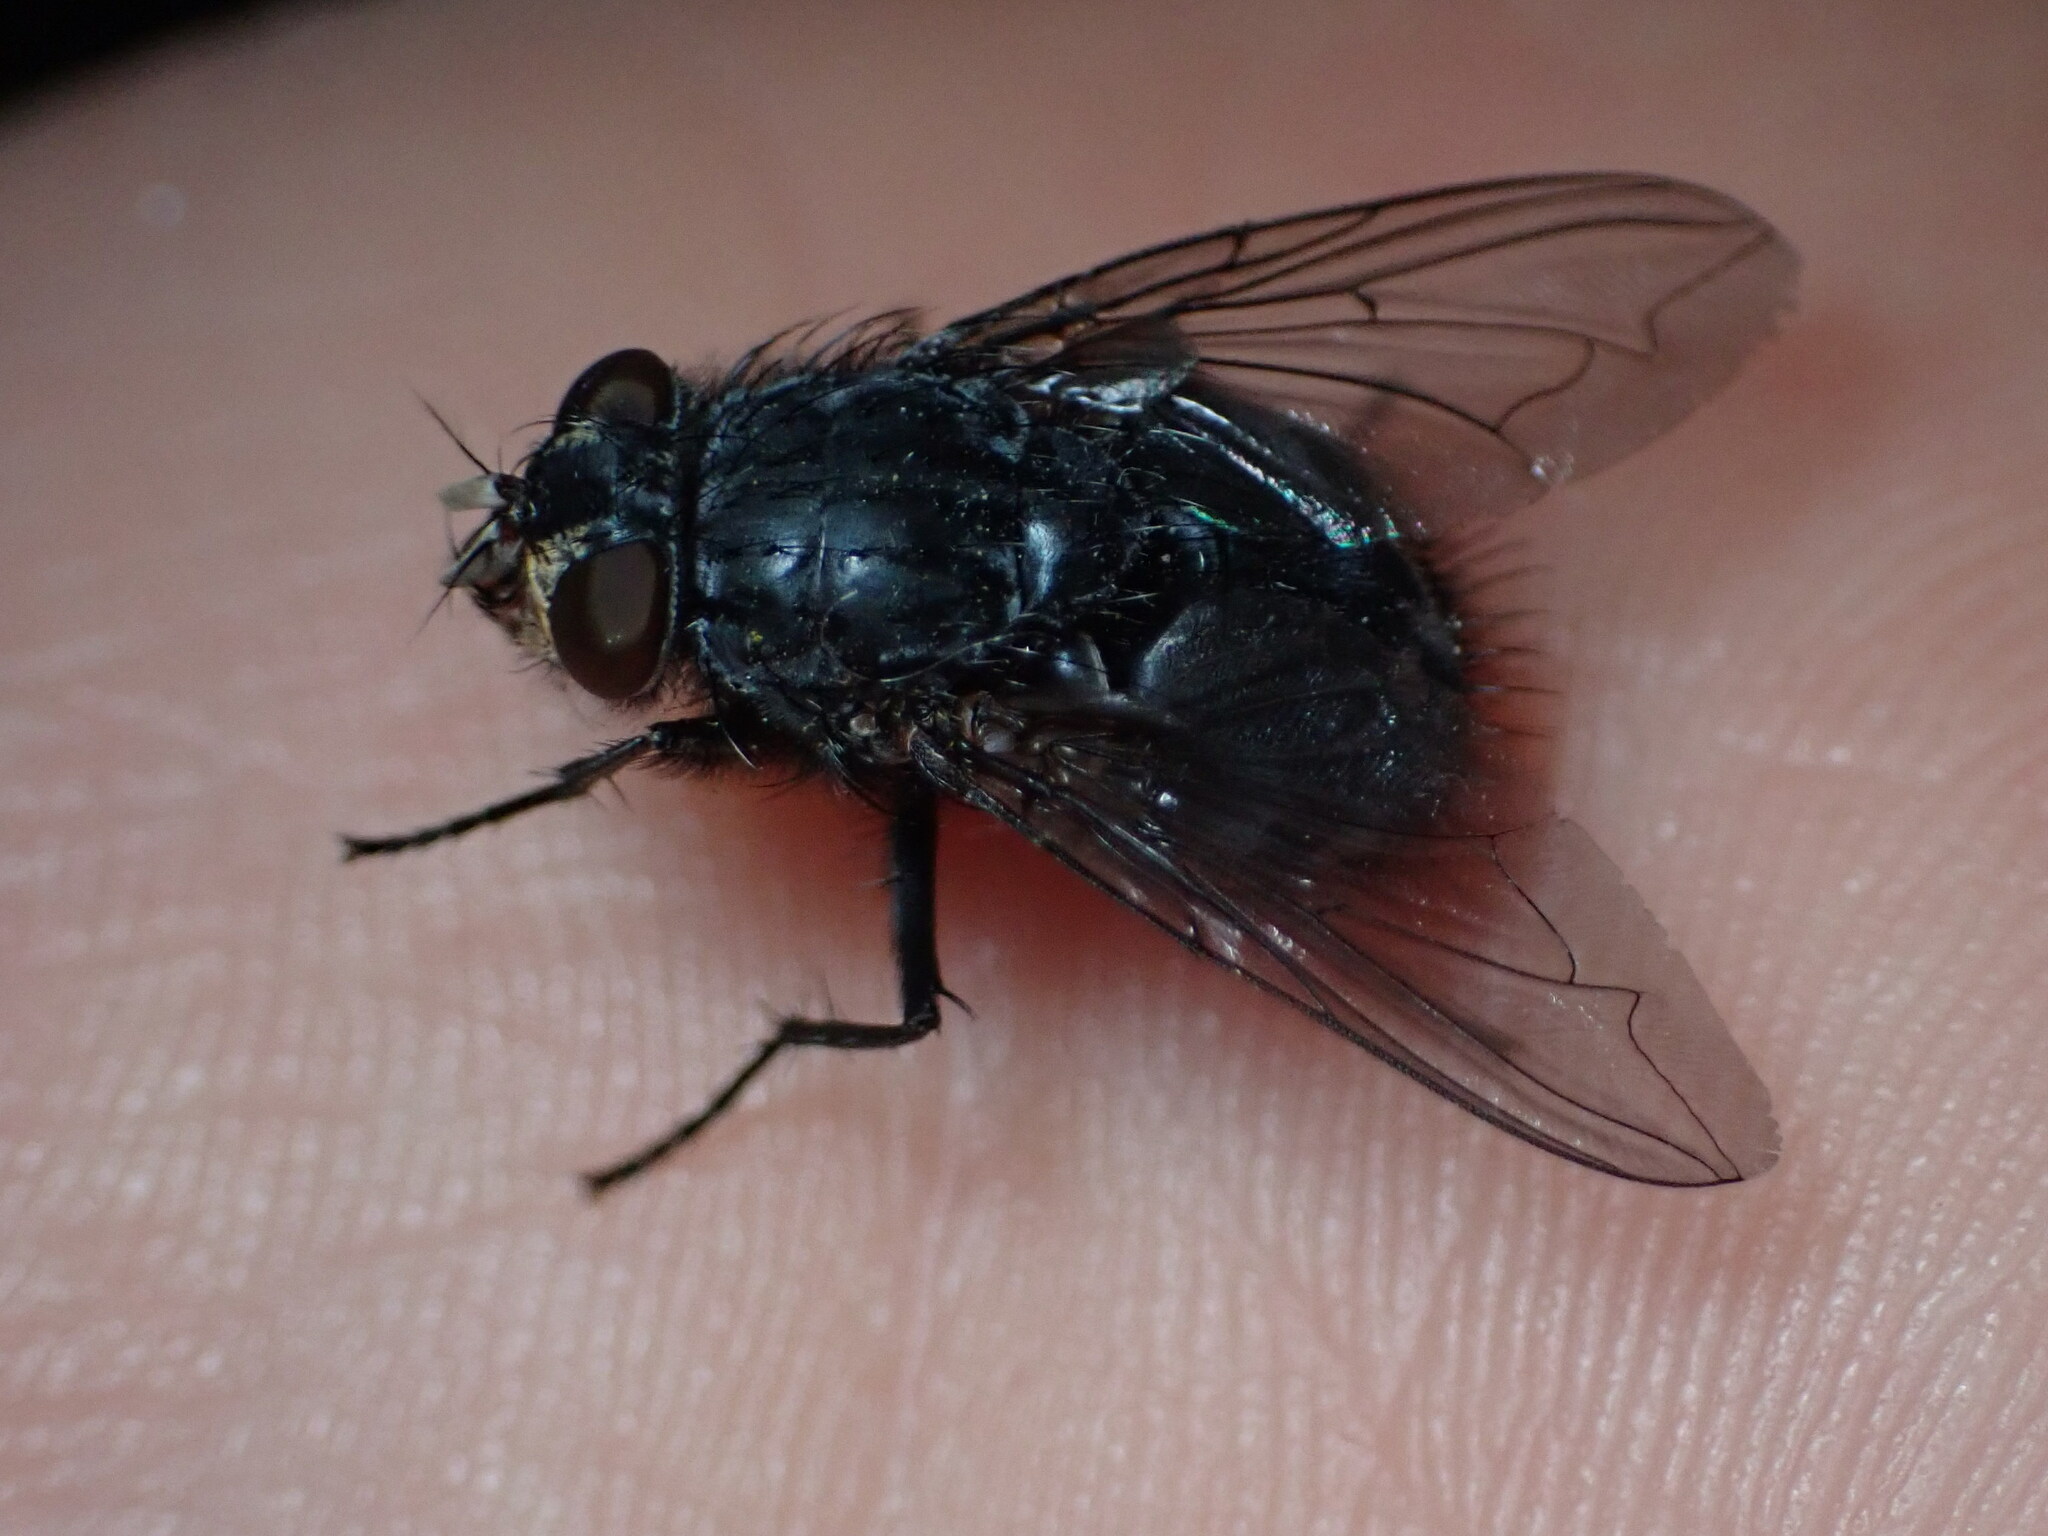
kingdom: Animalia
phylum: Arthropoda
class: Insecta
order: Diptera
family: Calliphoridae
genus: Calliphora
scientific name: Calliphora vicina
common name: Common blow flie
